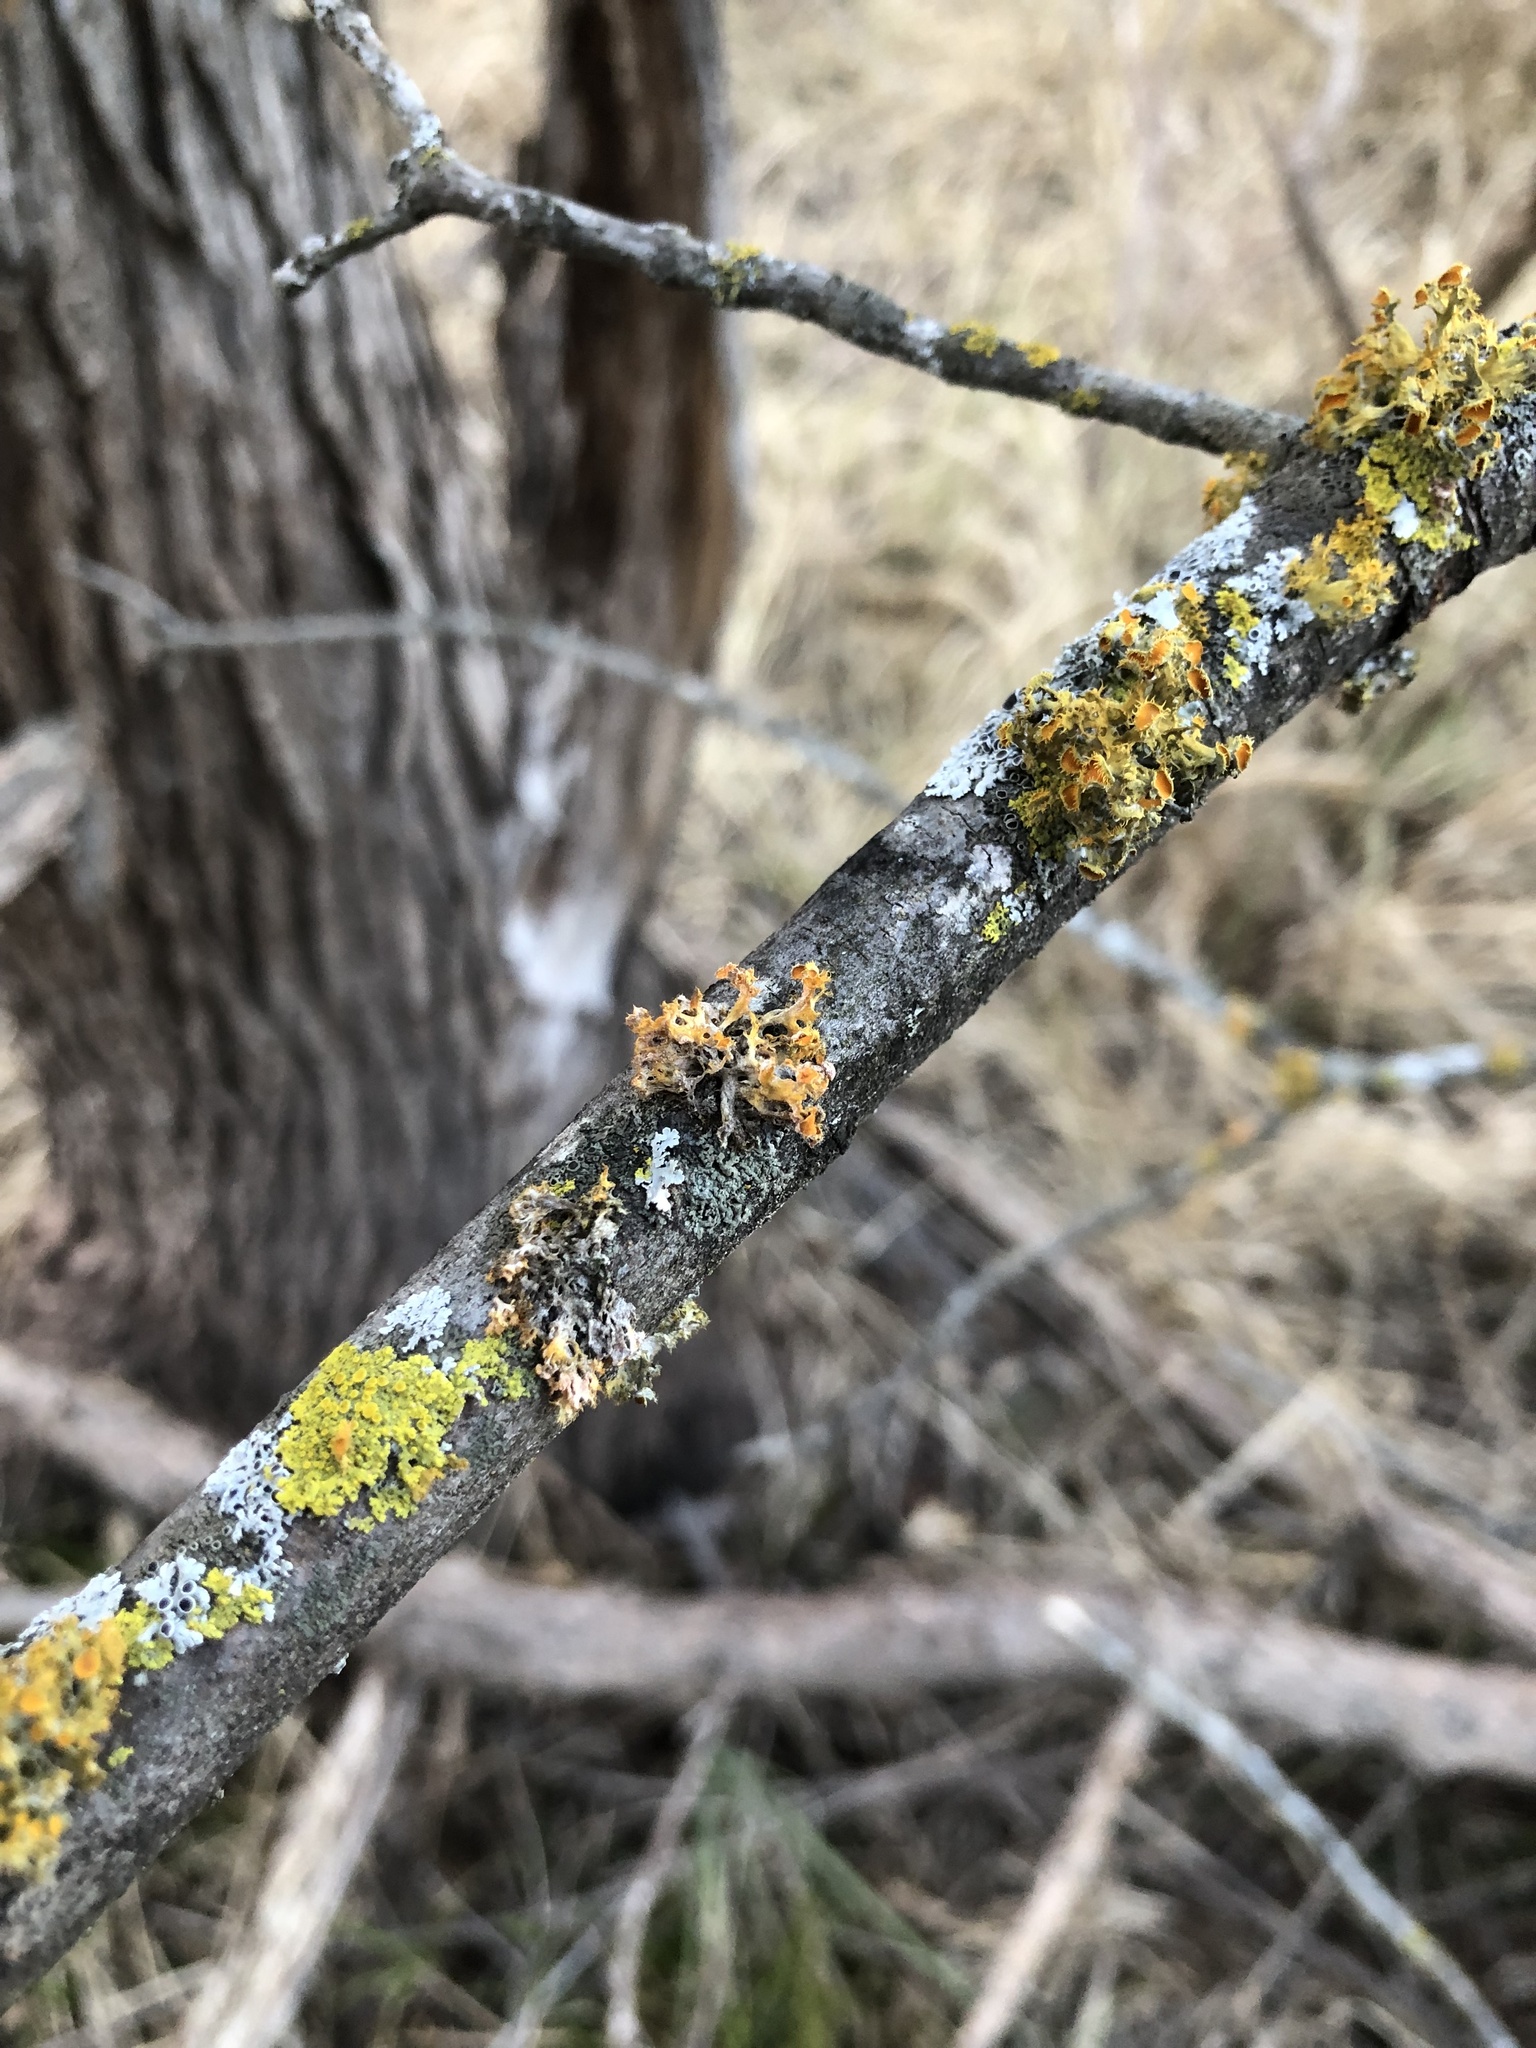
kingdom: Fungi
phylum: Ascomycota
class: Lecanoromycetes
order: Teloschistales
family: Teloschistaceae
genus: Niorma
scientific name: Niorma chrysophthalma
